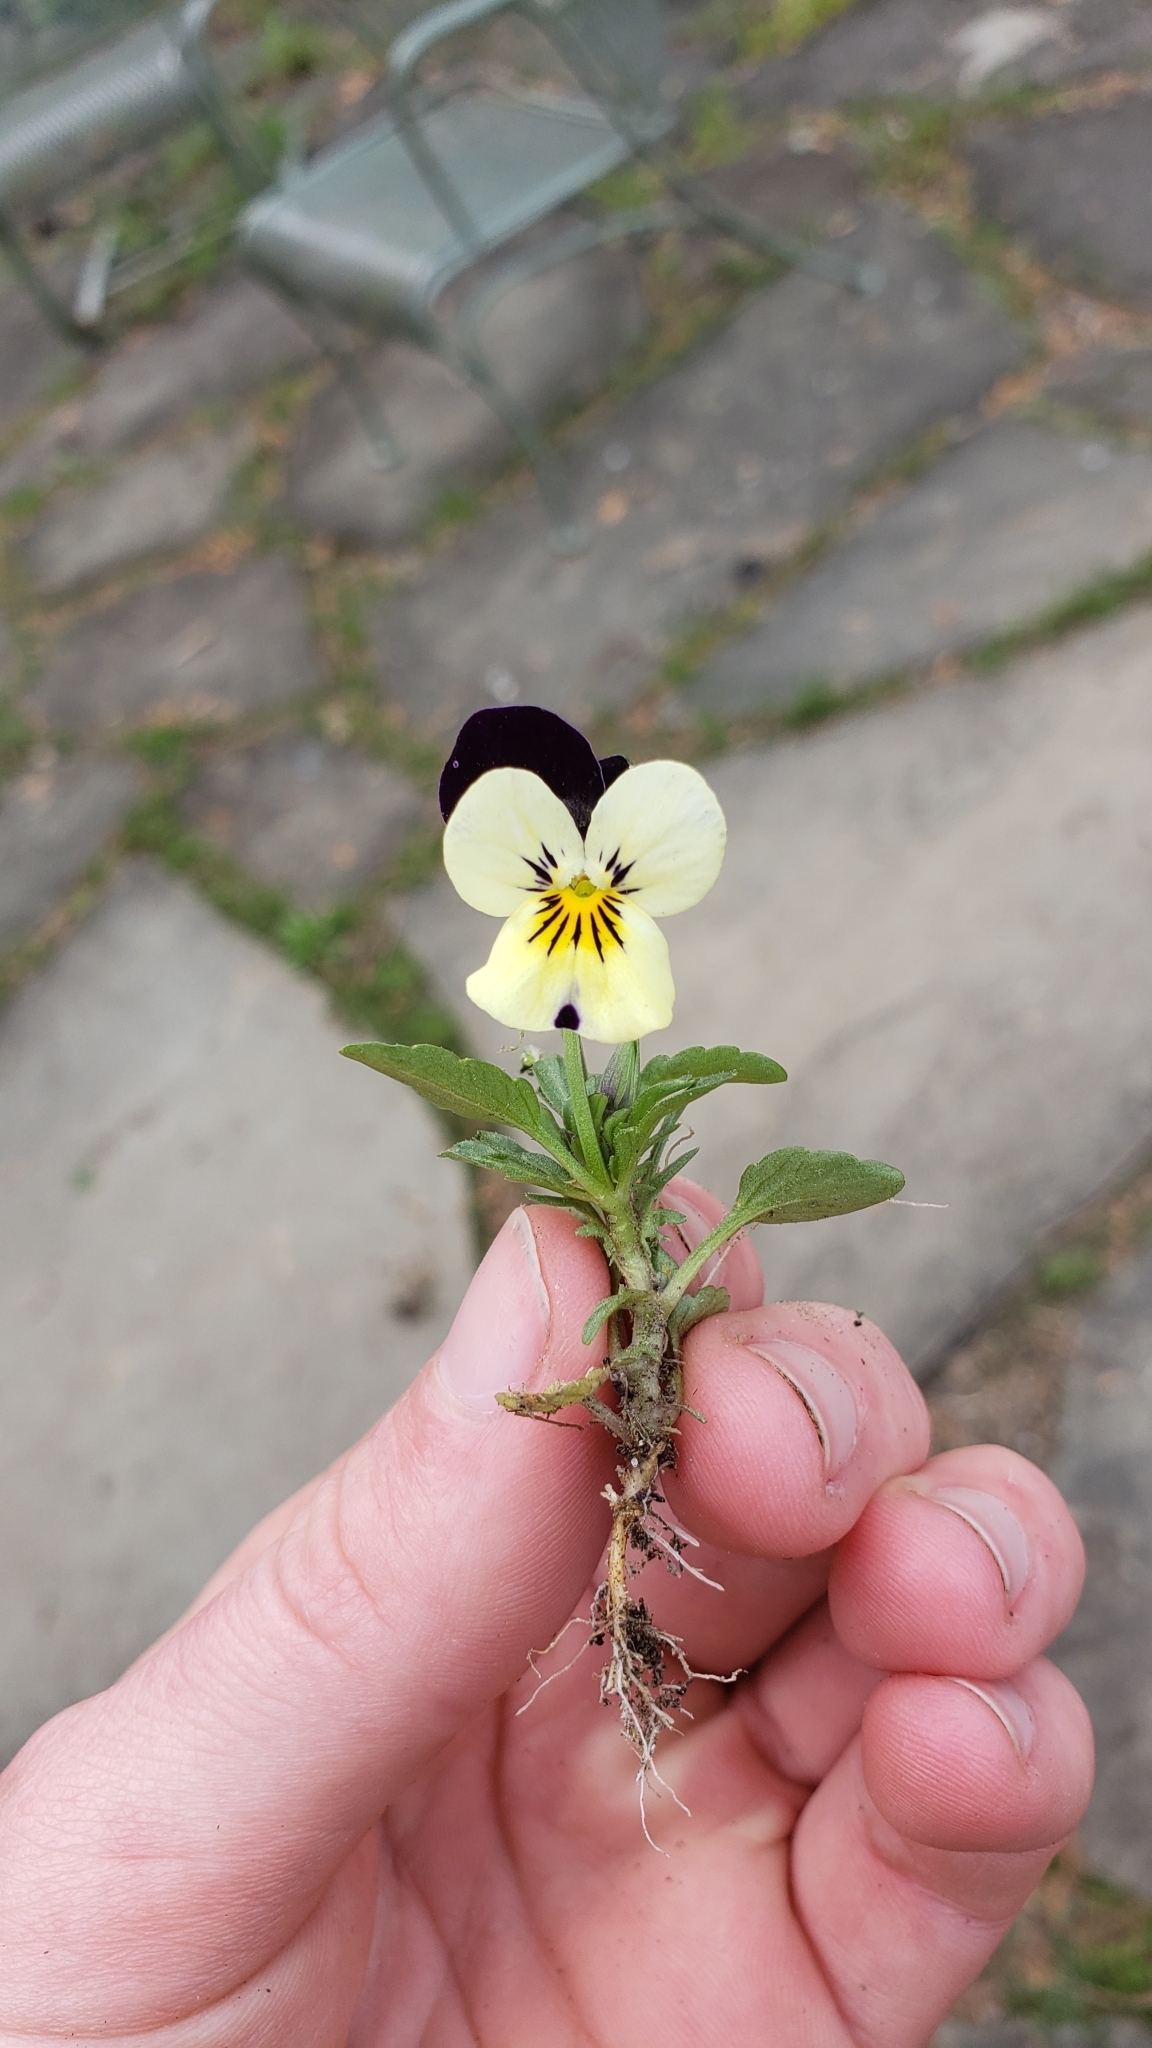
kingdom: Plantae
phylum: Tracheophyta
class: Magnoliopsida
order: Malpighiales
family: Violaceae
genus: Viola
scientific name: Viola williamsii
